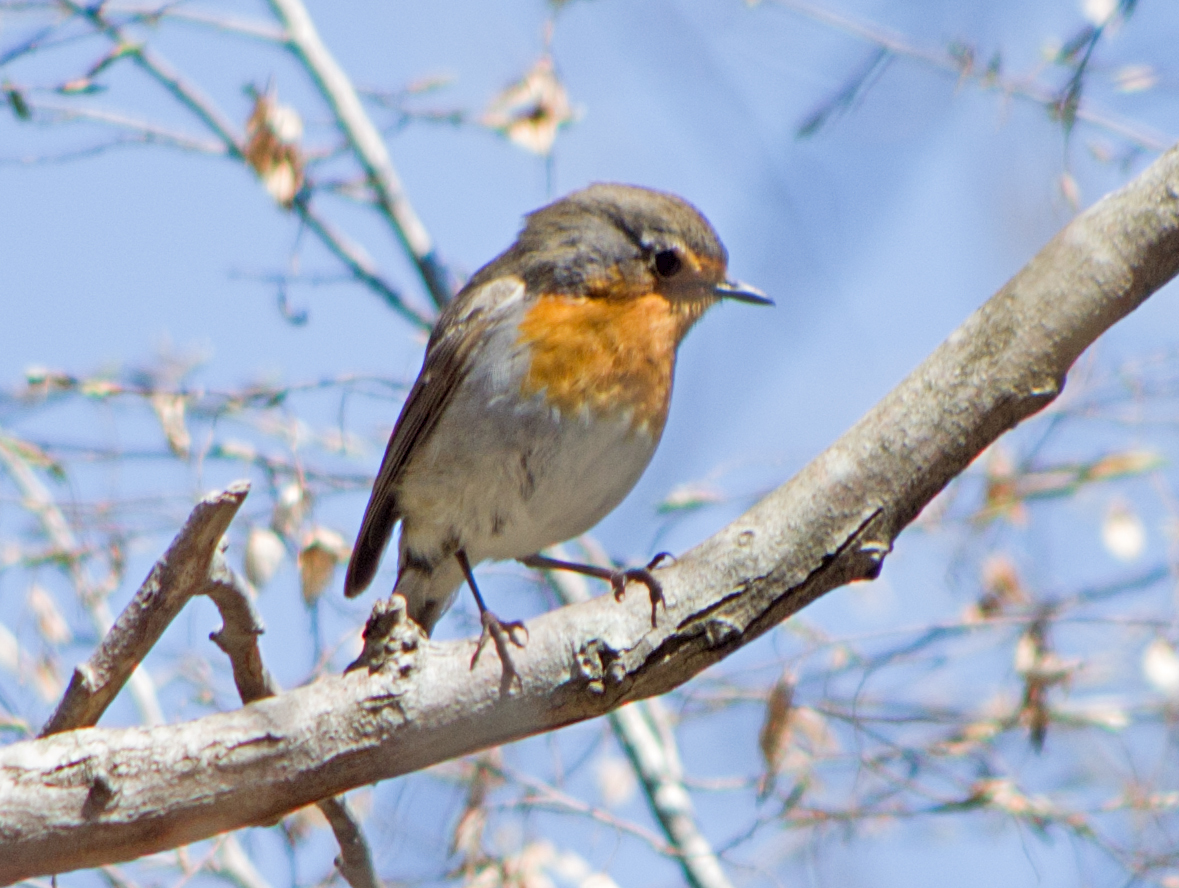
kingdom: Animalia
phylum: Chordata
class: Aves
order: Passeriformes
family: Muscicapidae
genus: Erithacus
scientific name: Erithacus rubecula
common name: European robin
